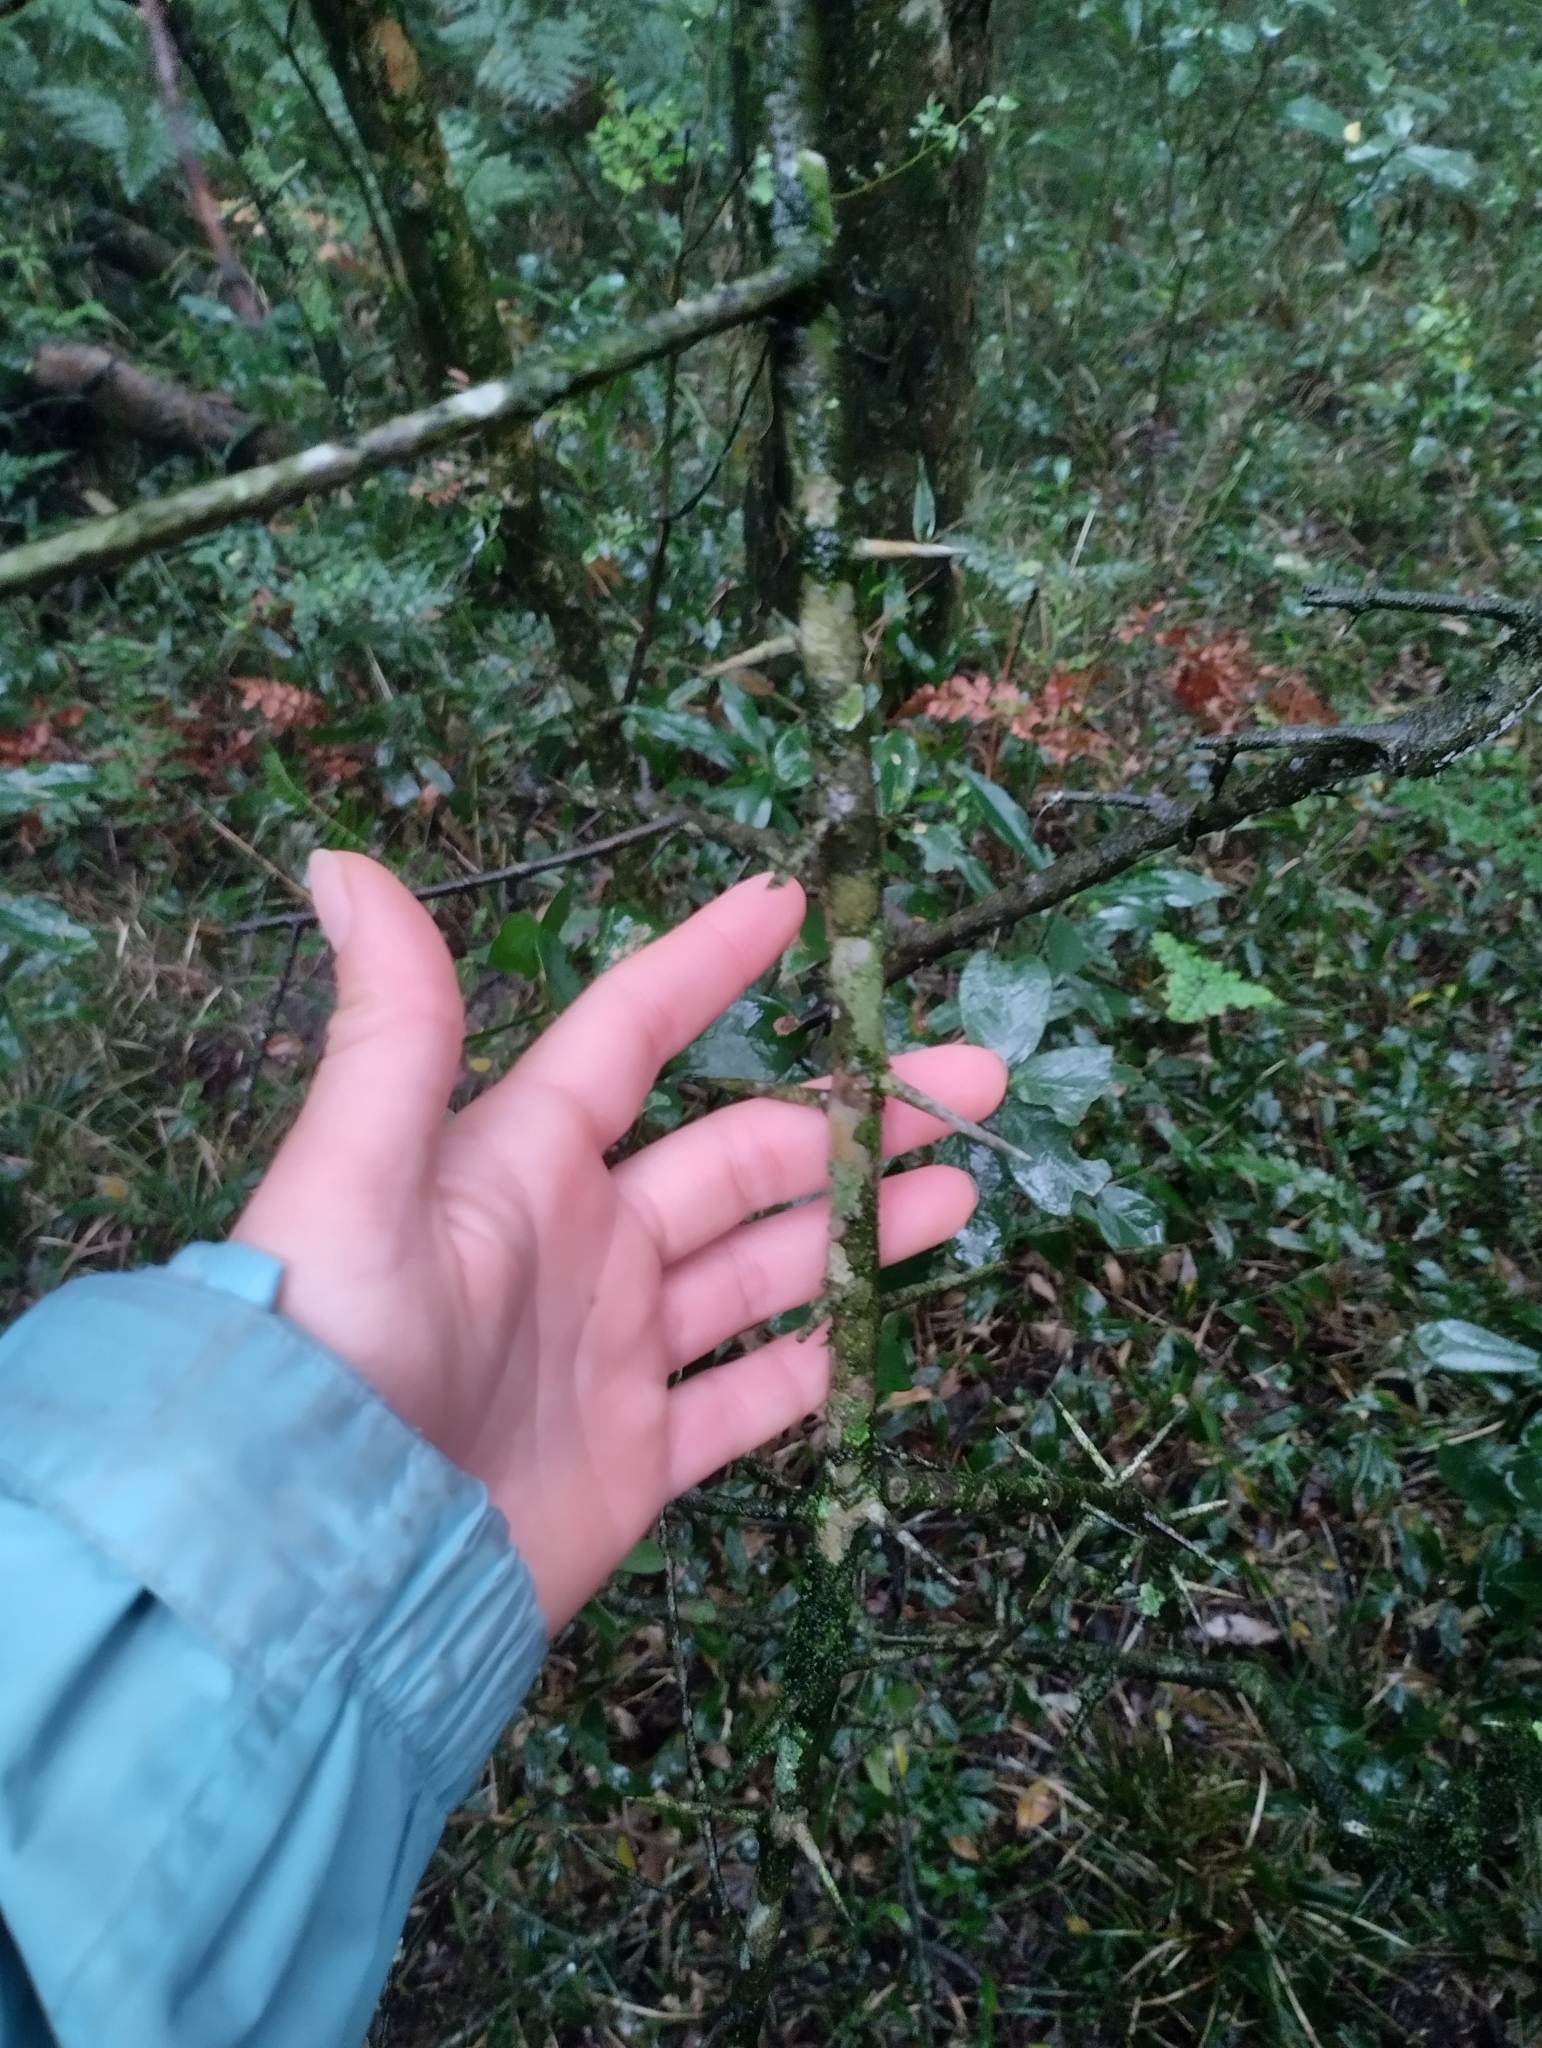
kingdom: Plantae
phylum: Tracheophyta
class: Magnoliopsida
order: Rosales
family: Rhamnaceae
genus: Scutia
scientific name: Scutia buxifolia
